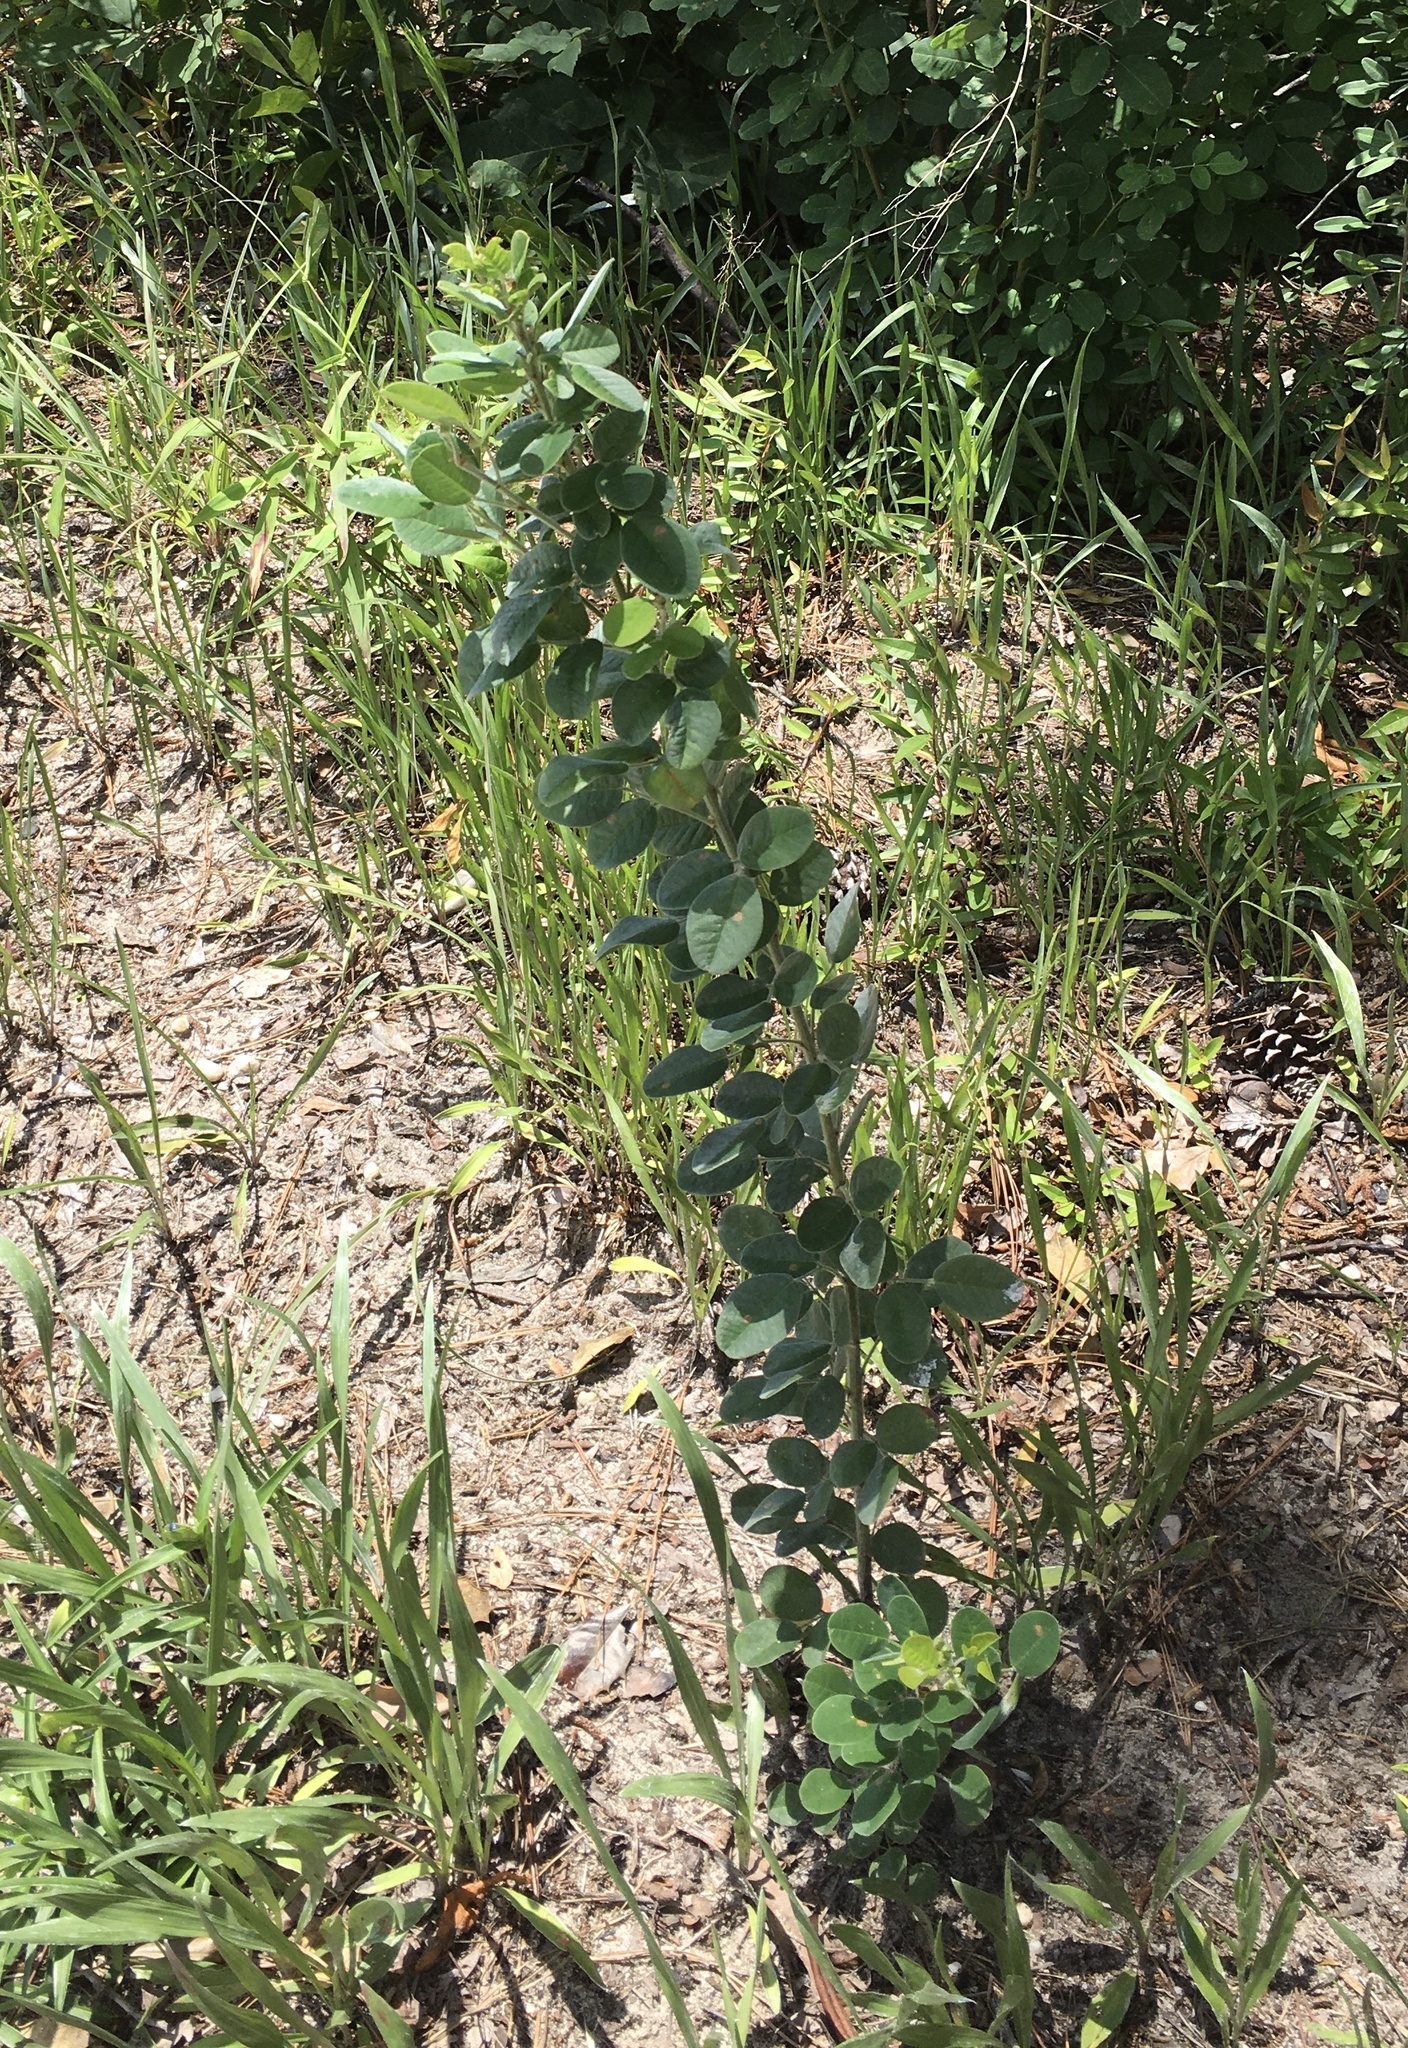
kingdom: Plantae
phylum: Tracheophyta
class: Magnoliopsida
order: Fabales
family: Fabaceae
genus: Lespedeza
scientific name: Lespedeza hirta
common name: Hairy lespedeza
